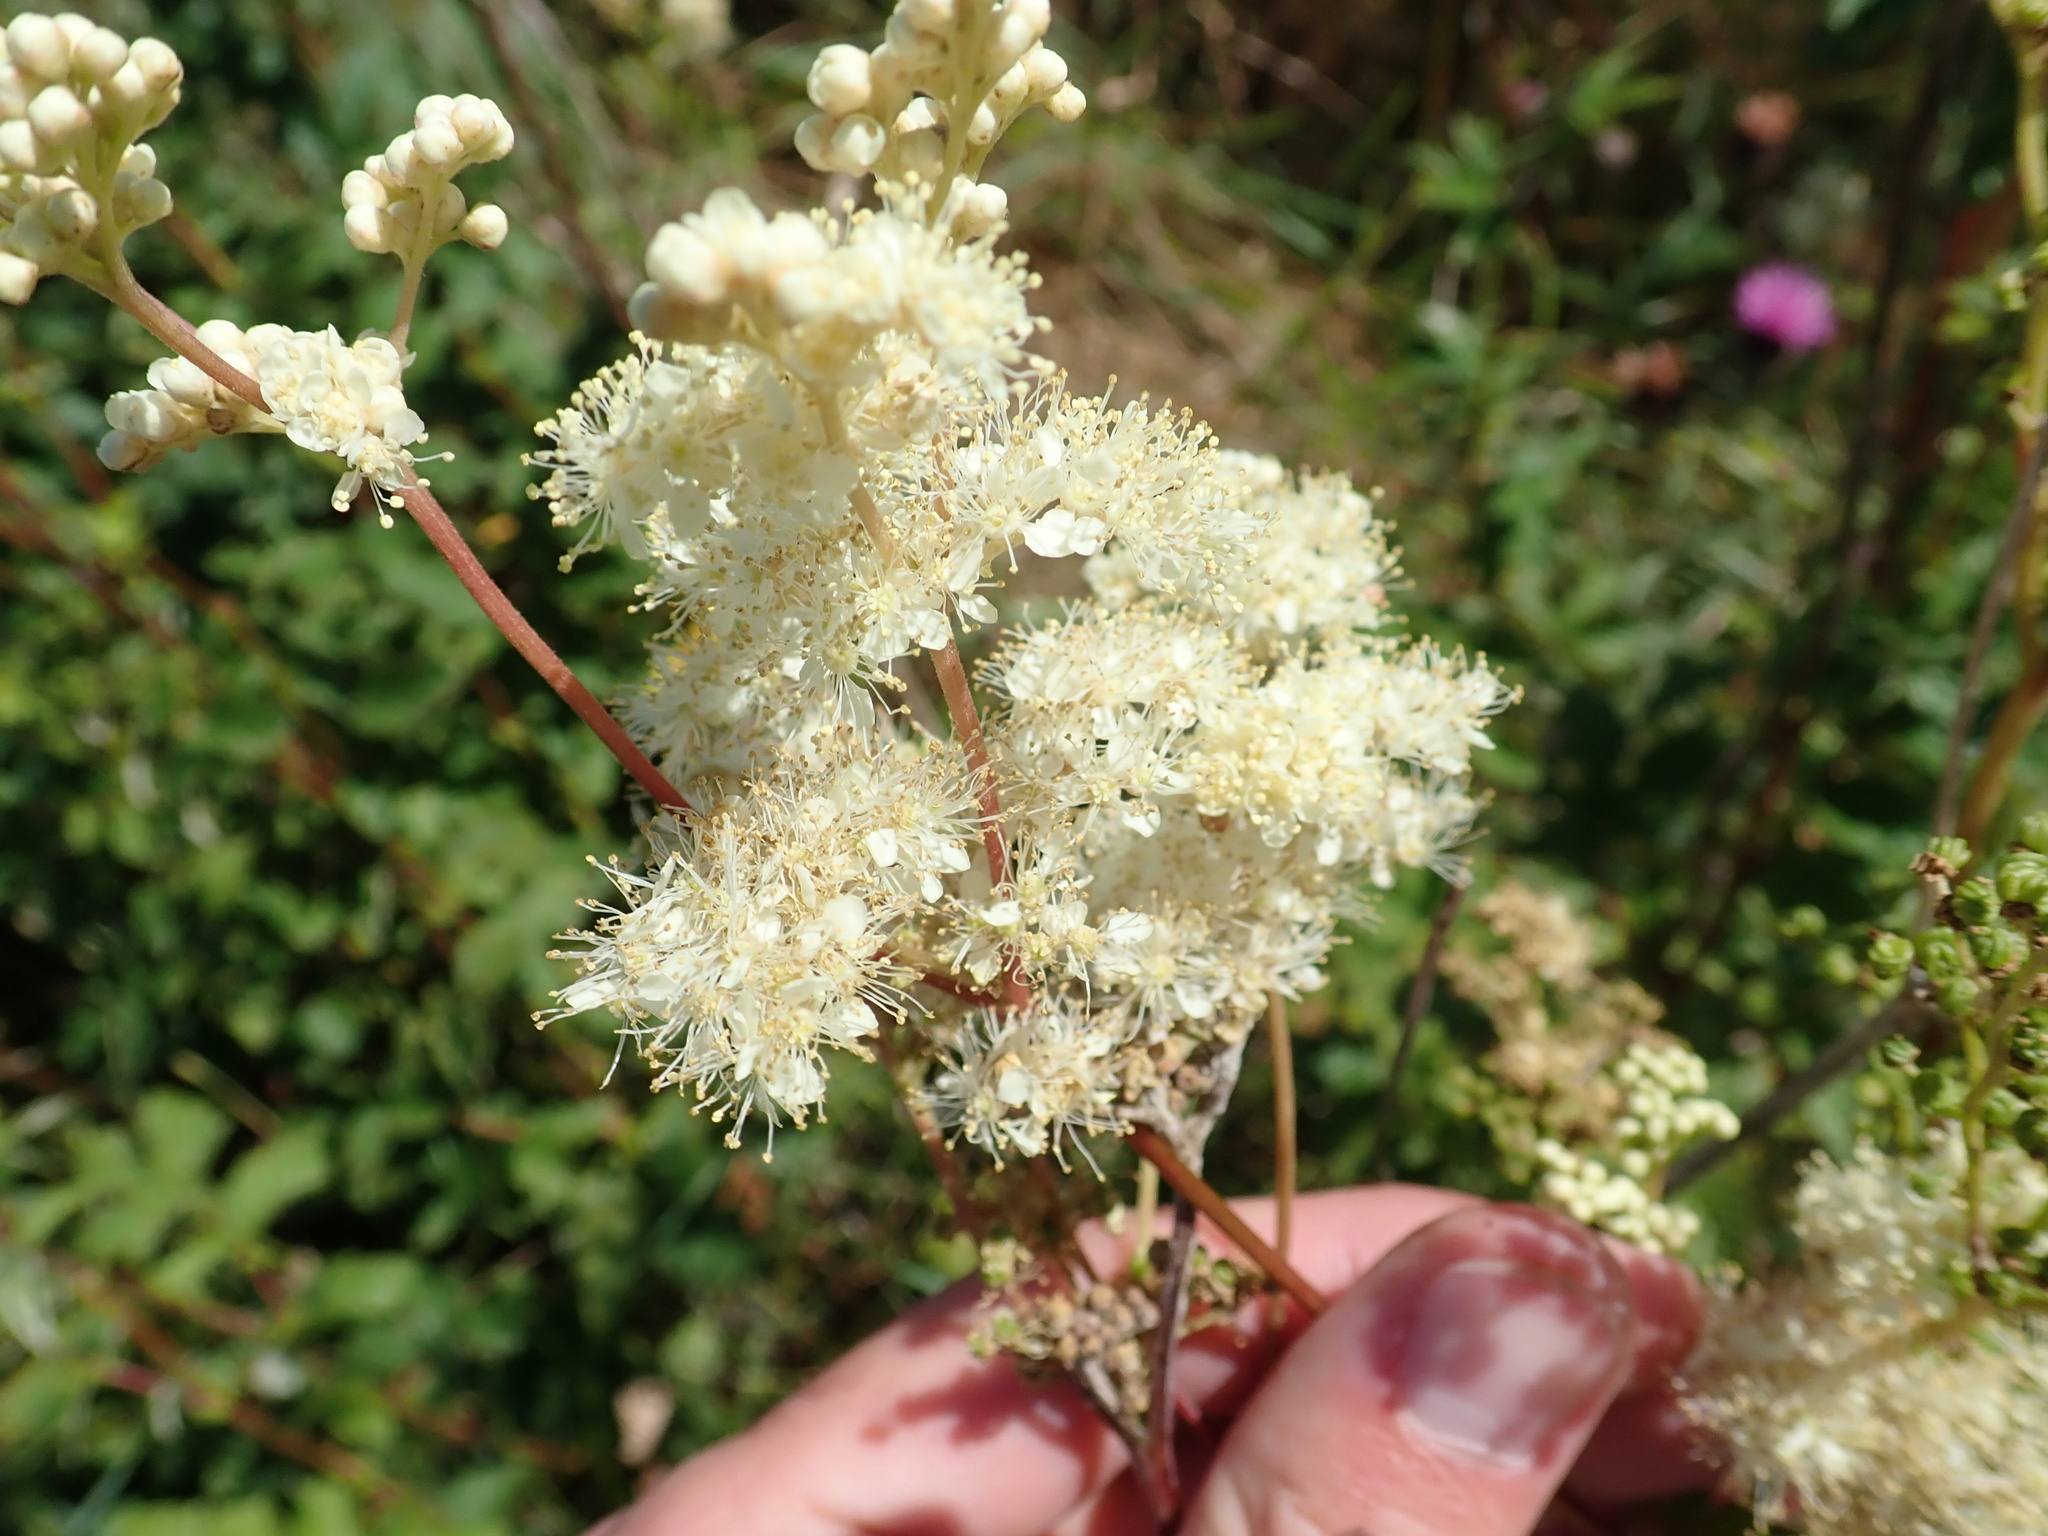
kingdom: Plantae
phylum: Tracheophyta
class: Magnoliopsida
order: Rosales
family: Rosaceae
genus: Filipendula
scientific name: Filipendula ulmaria
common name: Meadowsweet
